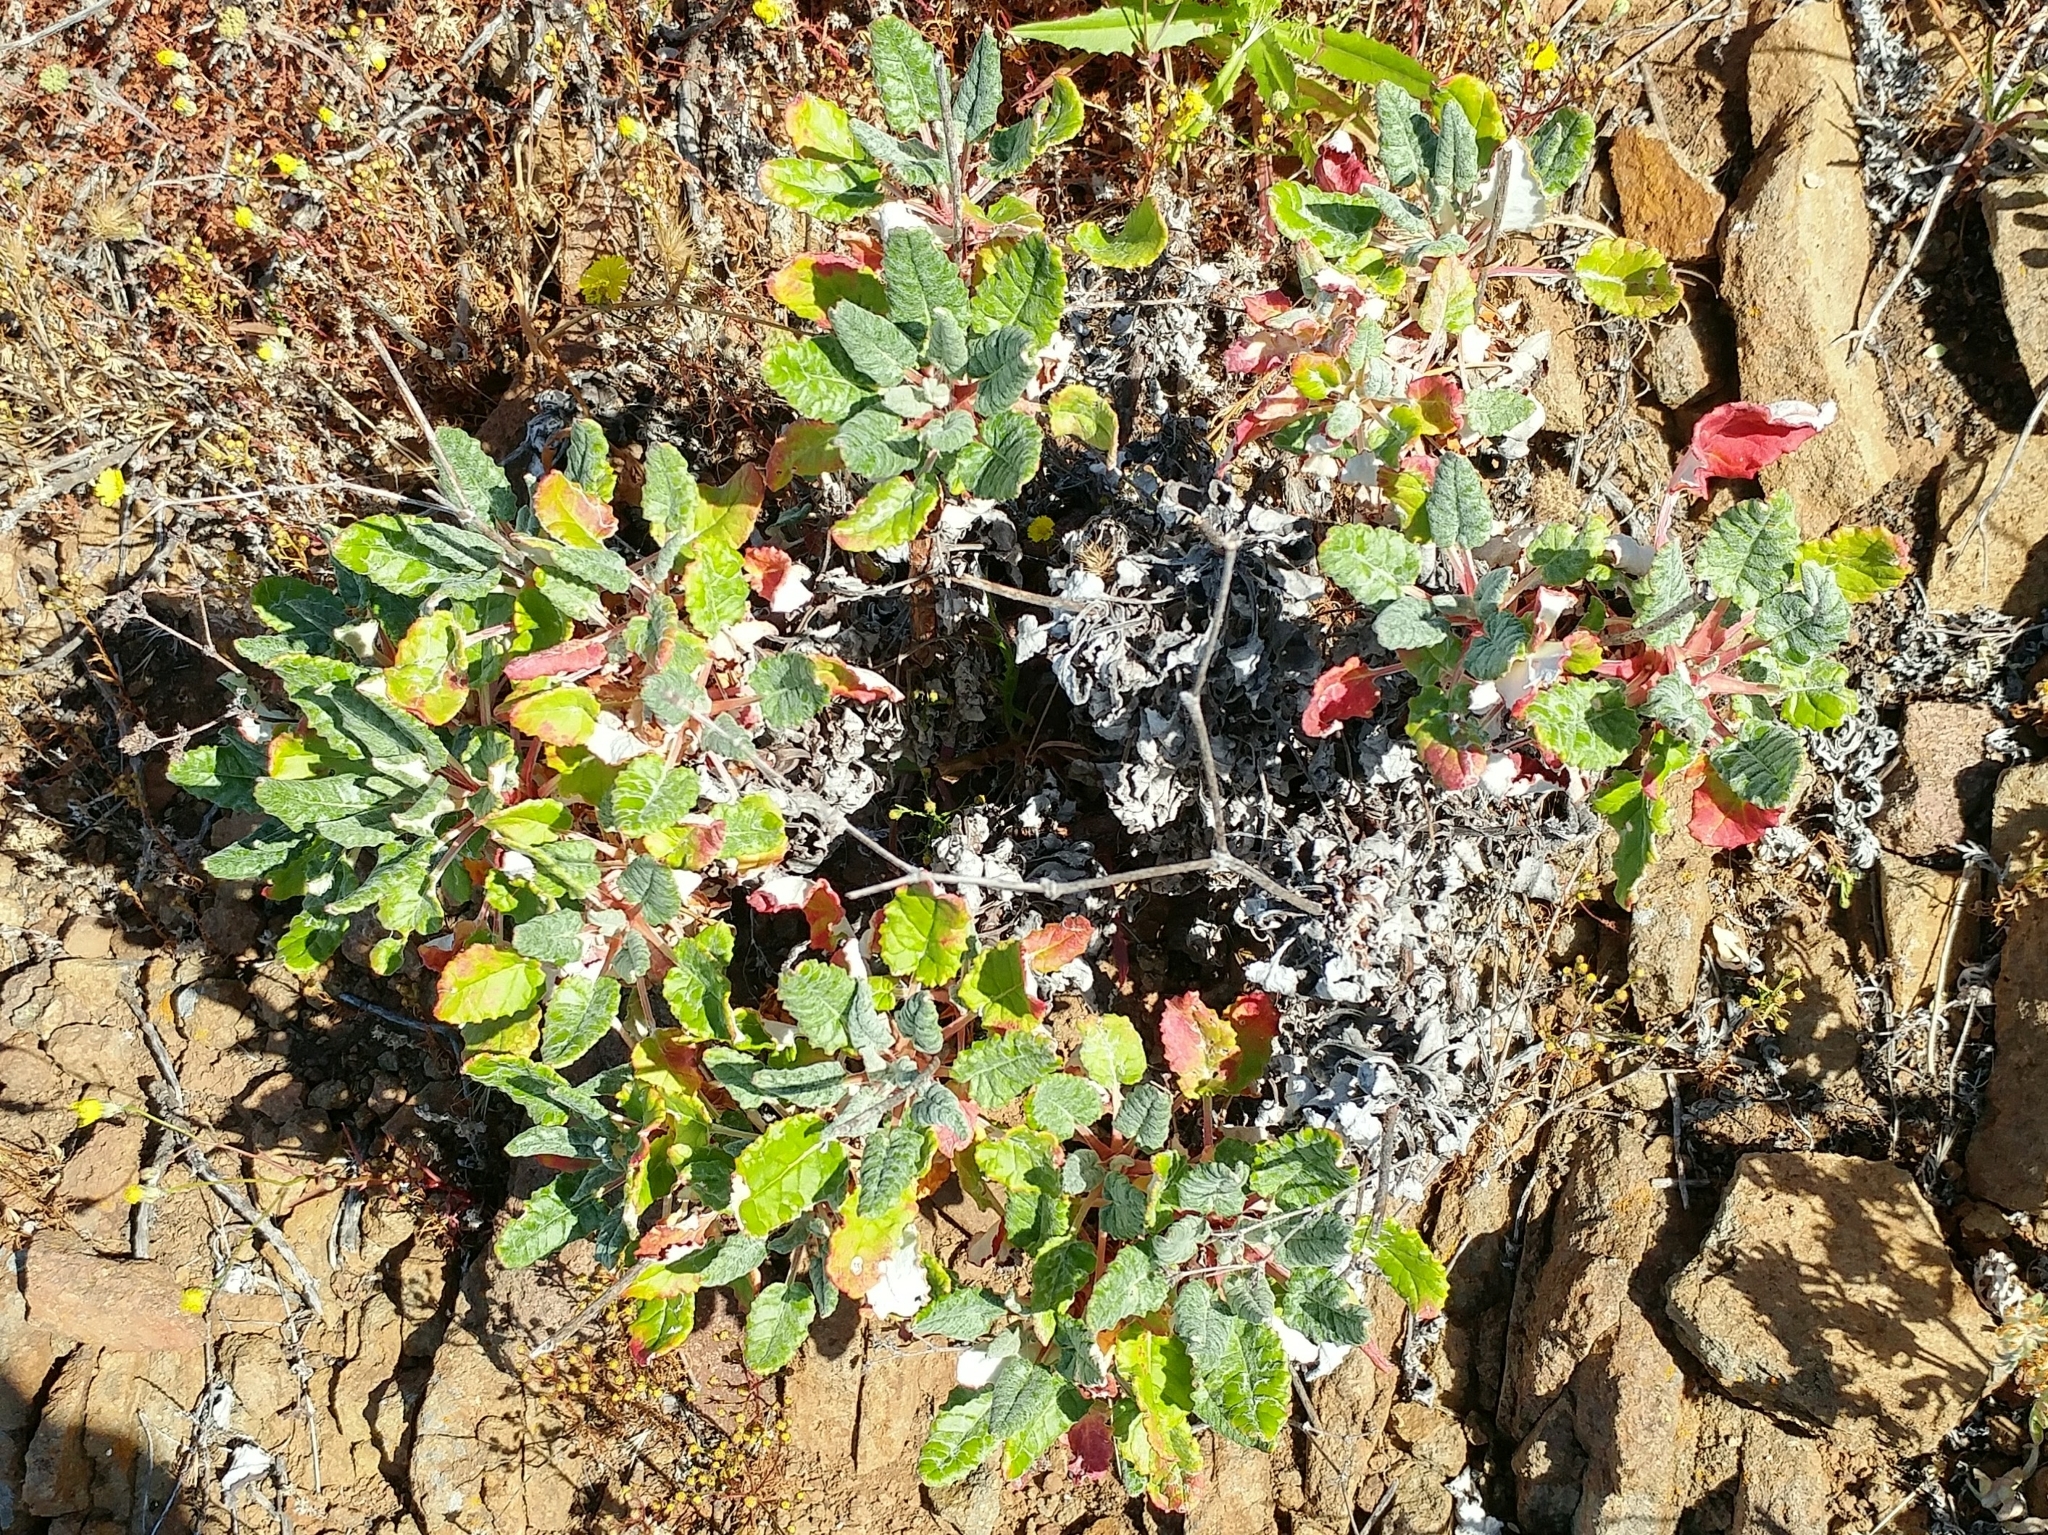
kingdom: Plantae
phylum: Tracheophyta
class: Magnoliopsida
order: Caryophyllales
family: Polygonaceae
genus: Eriogonum
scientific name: Eriogonum grande
